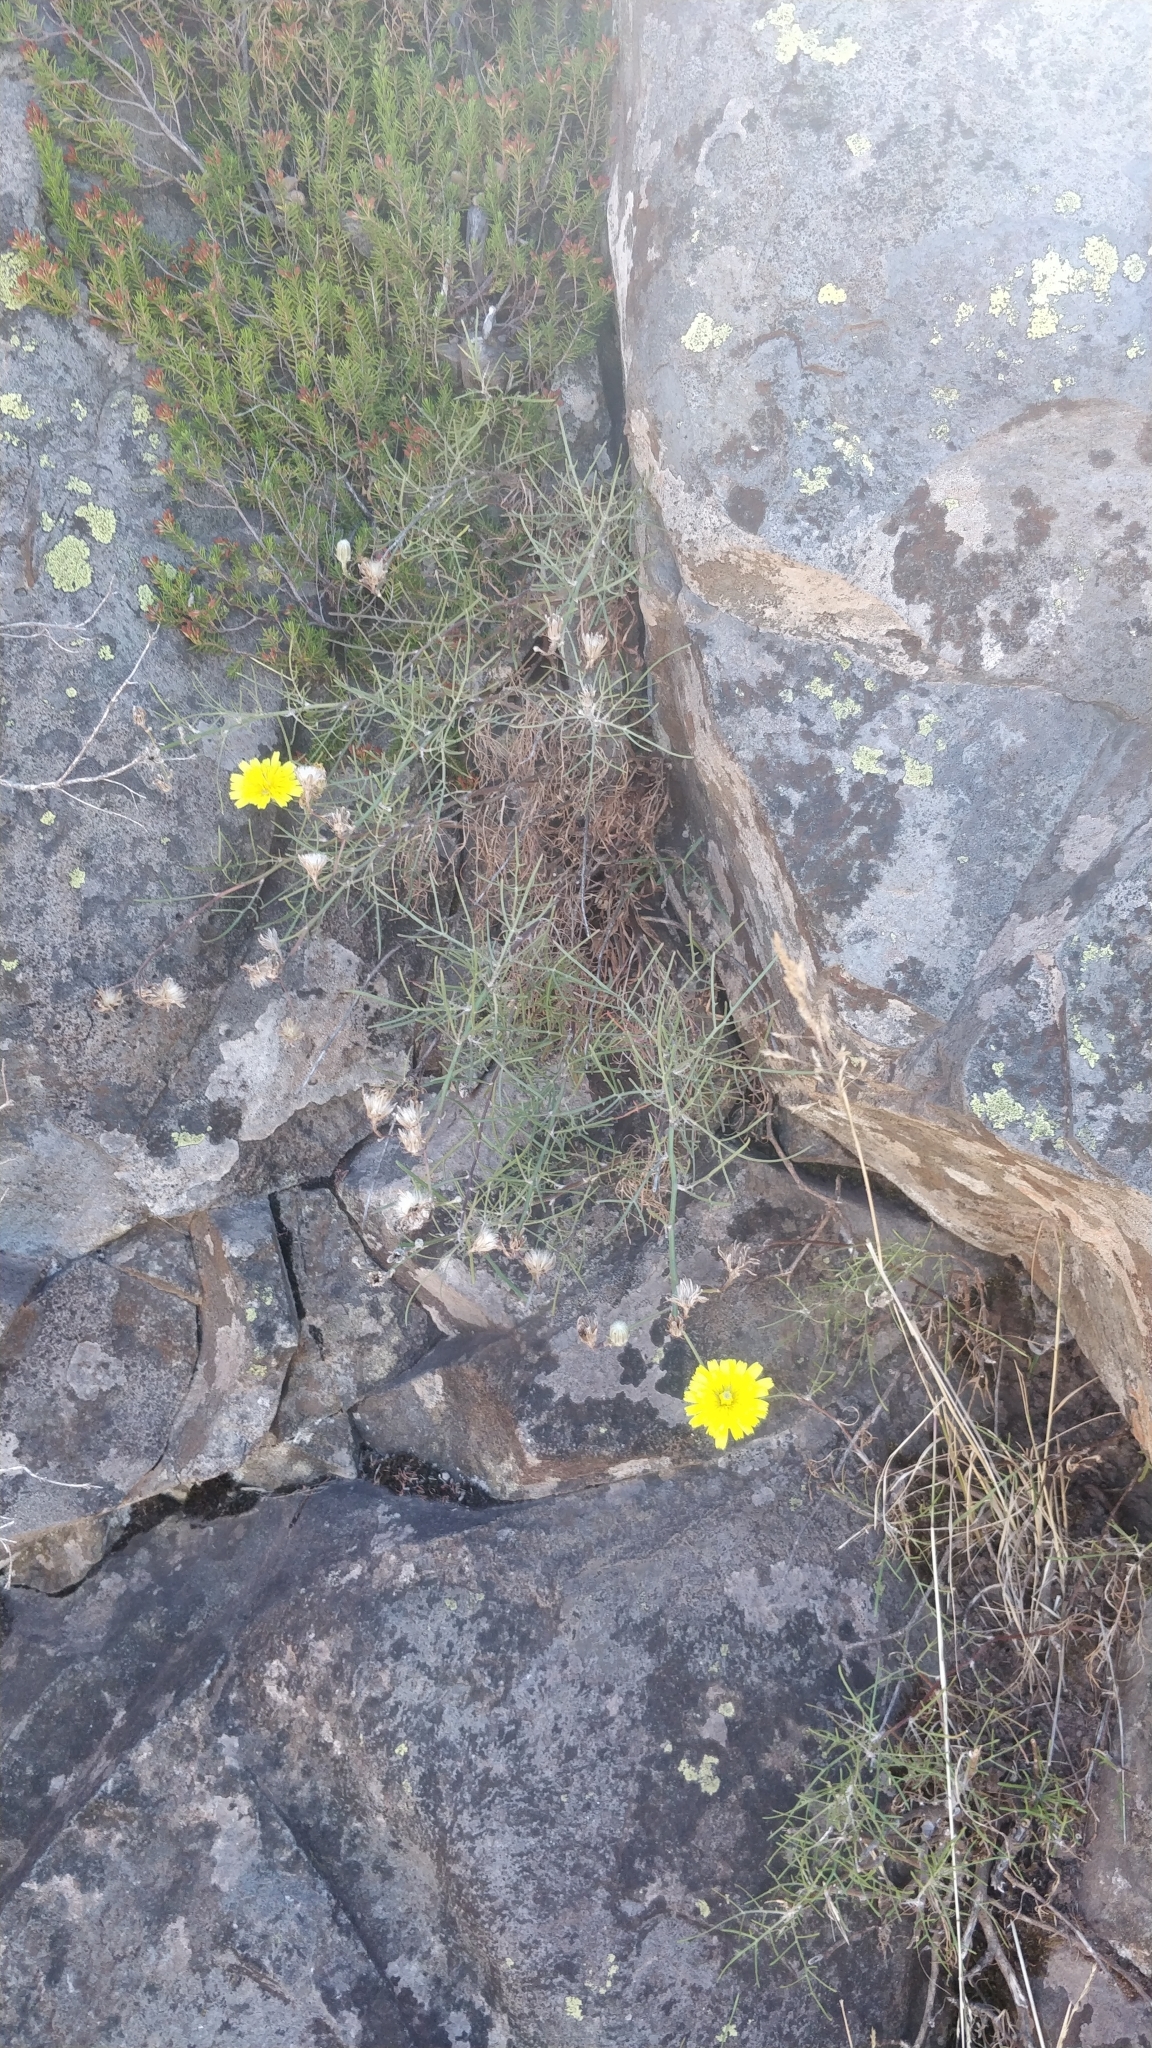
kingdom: Plantae
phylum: Tracheophyta
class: Magnoliopsida
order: Asterales
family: Asteraceae
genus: Tolpis
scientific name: Tolpis succulenta
